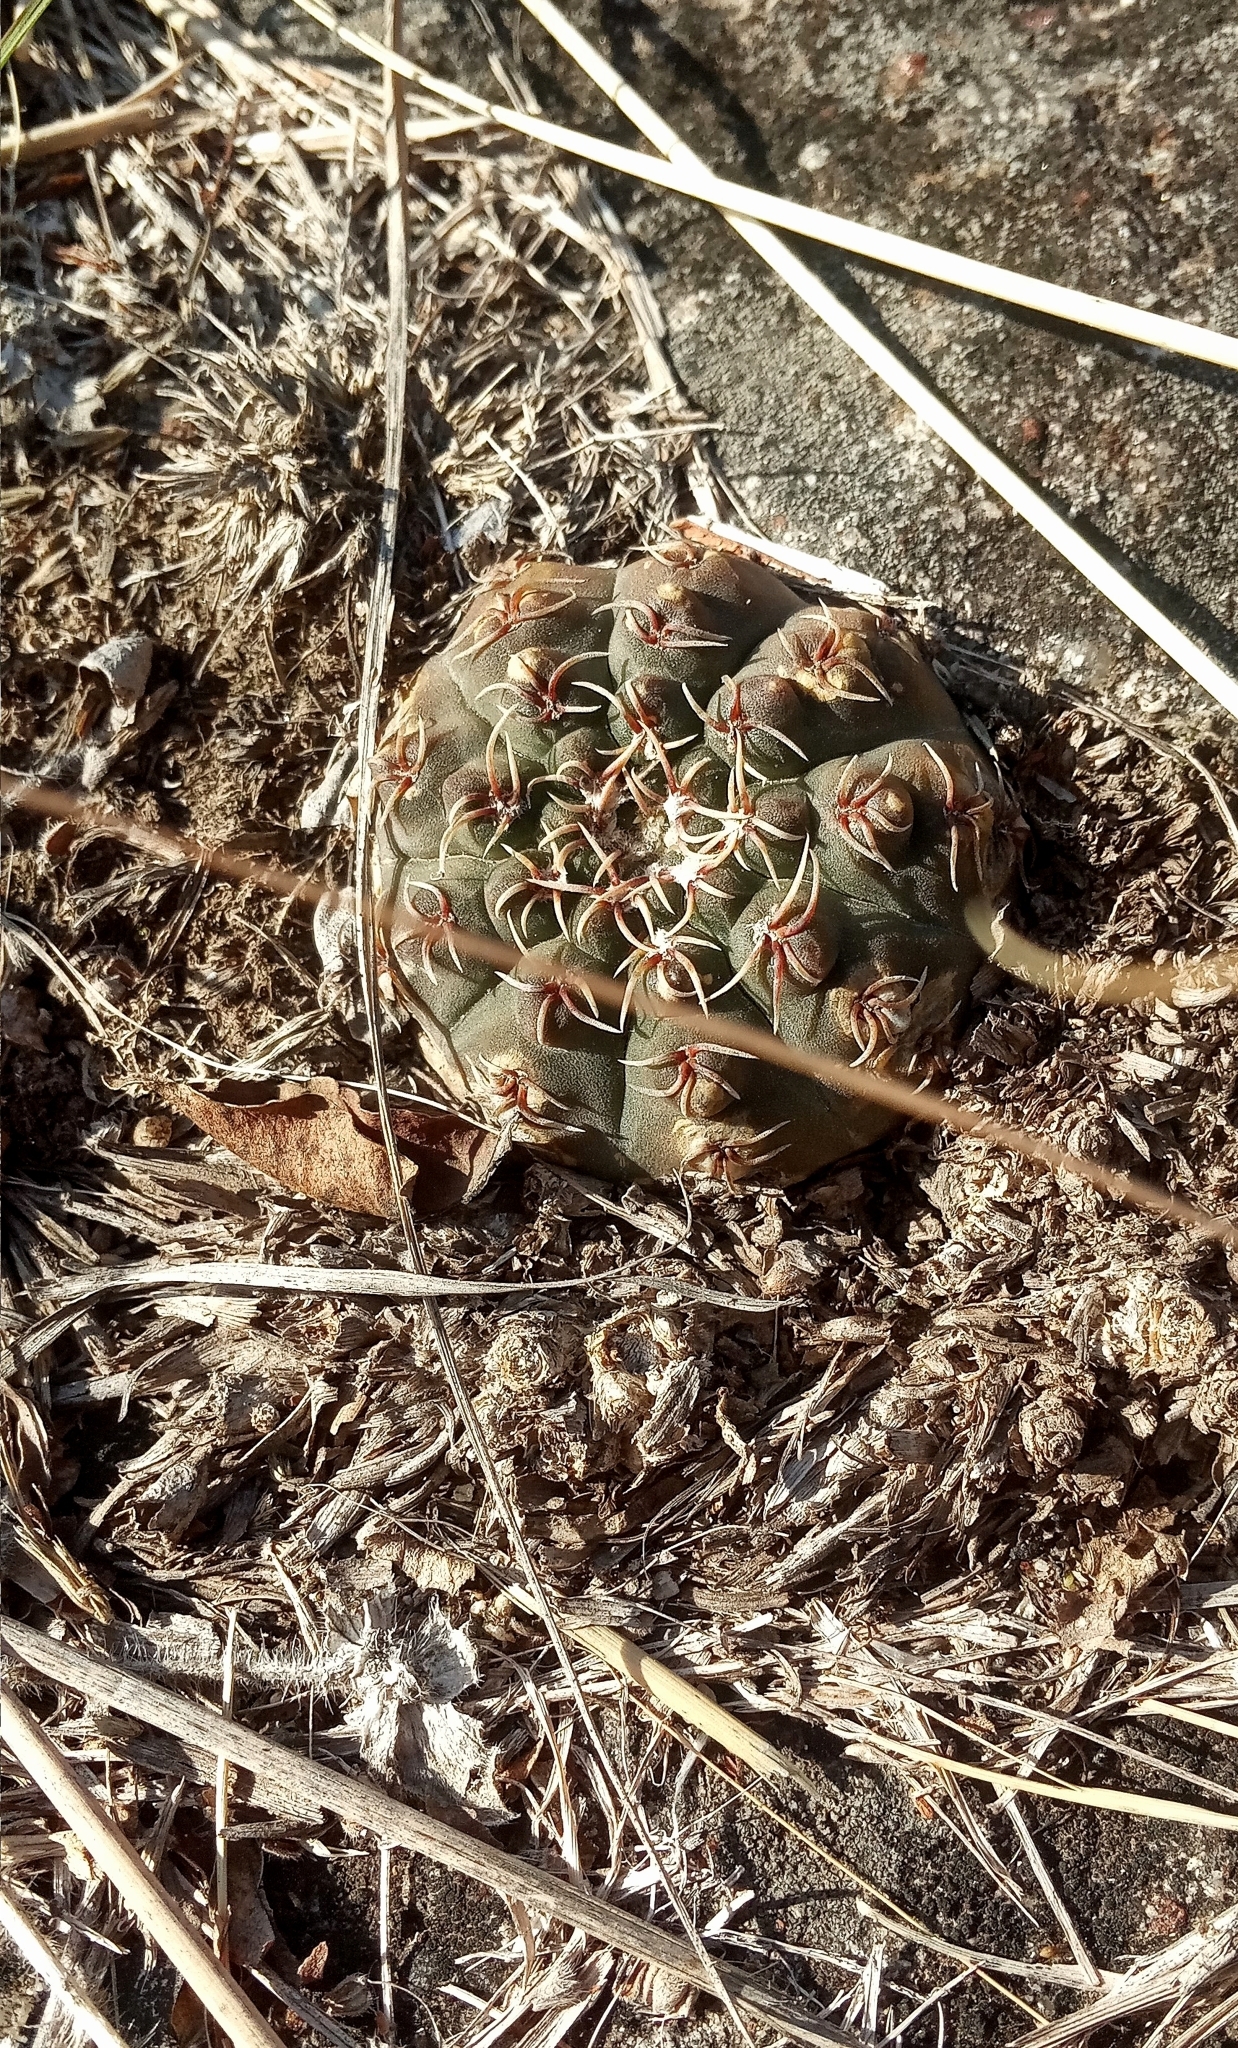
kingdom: Plantae
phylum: Tracheophyta
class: Magnoliopsida
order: Caryophyllales
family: Cactaceae
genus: Gymnocalycium
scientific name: Gymnocalycium quehlianum
